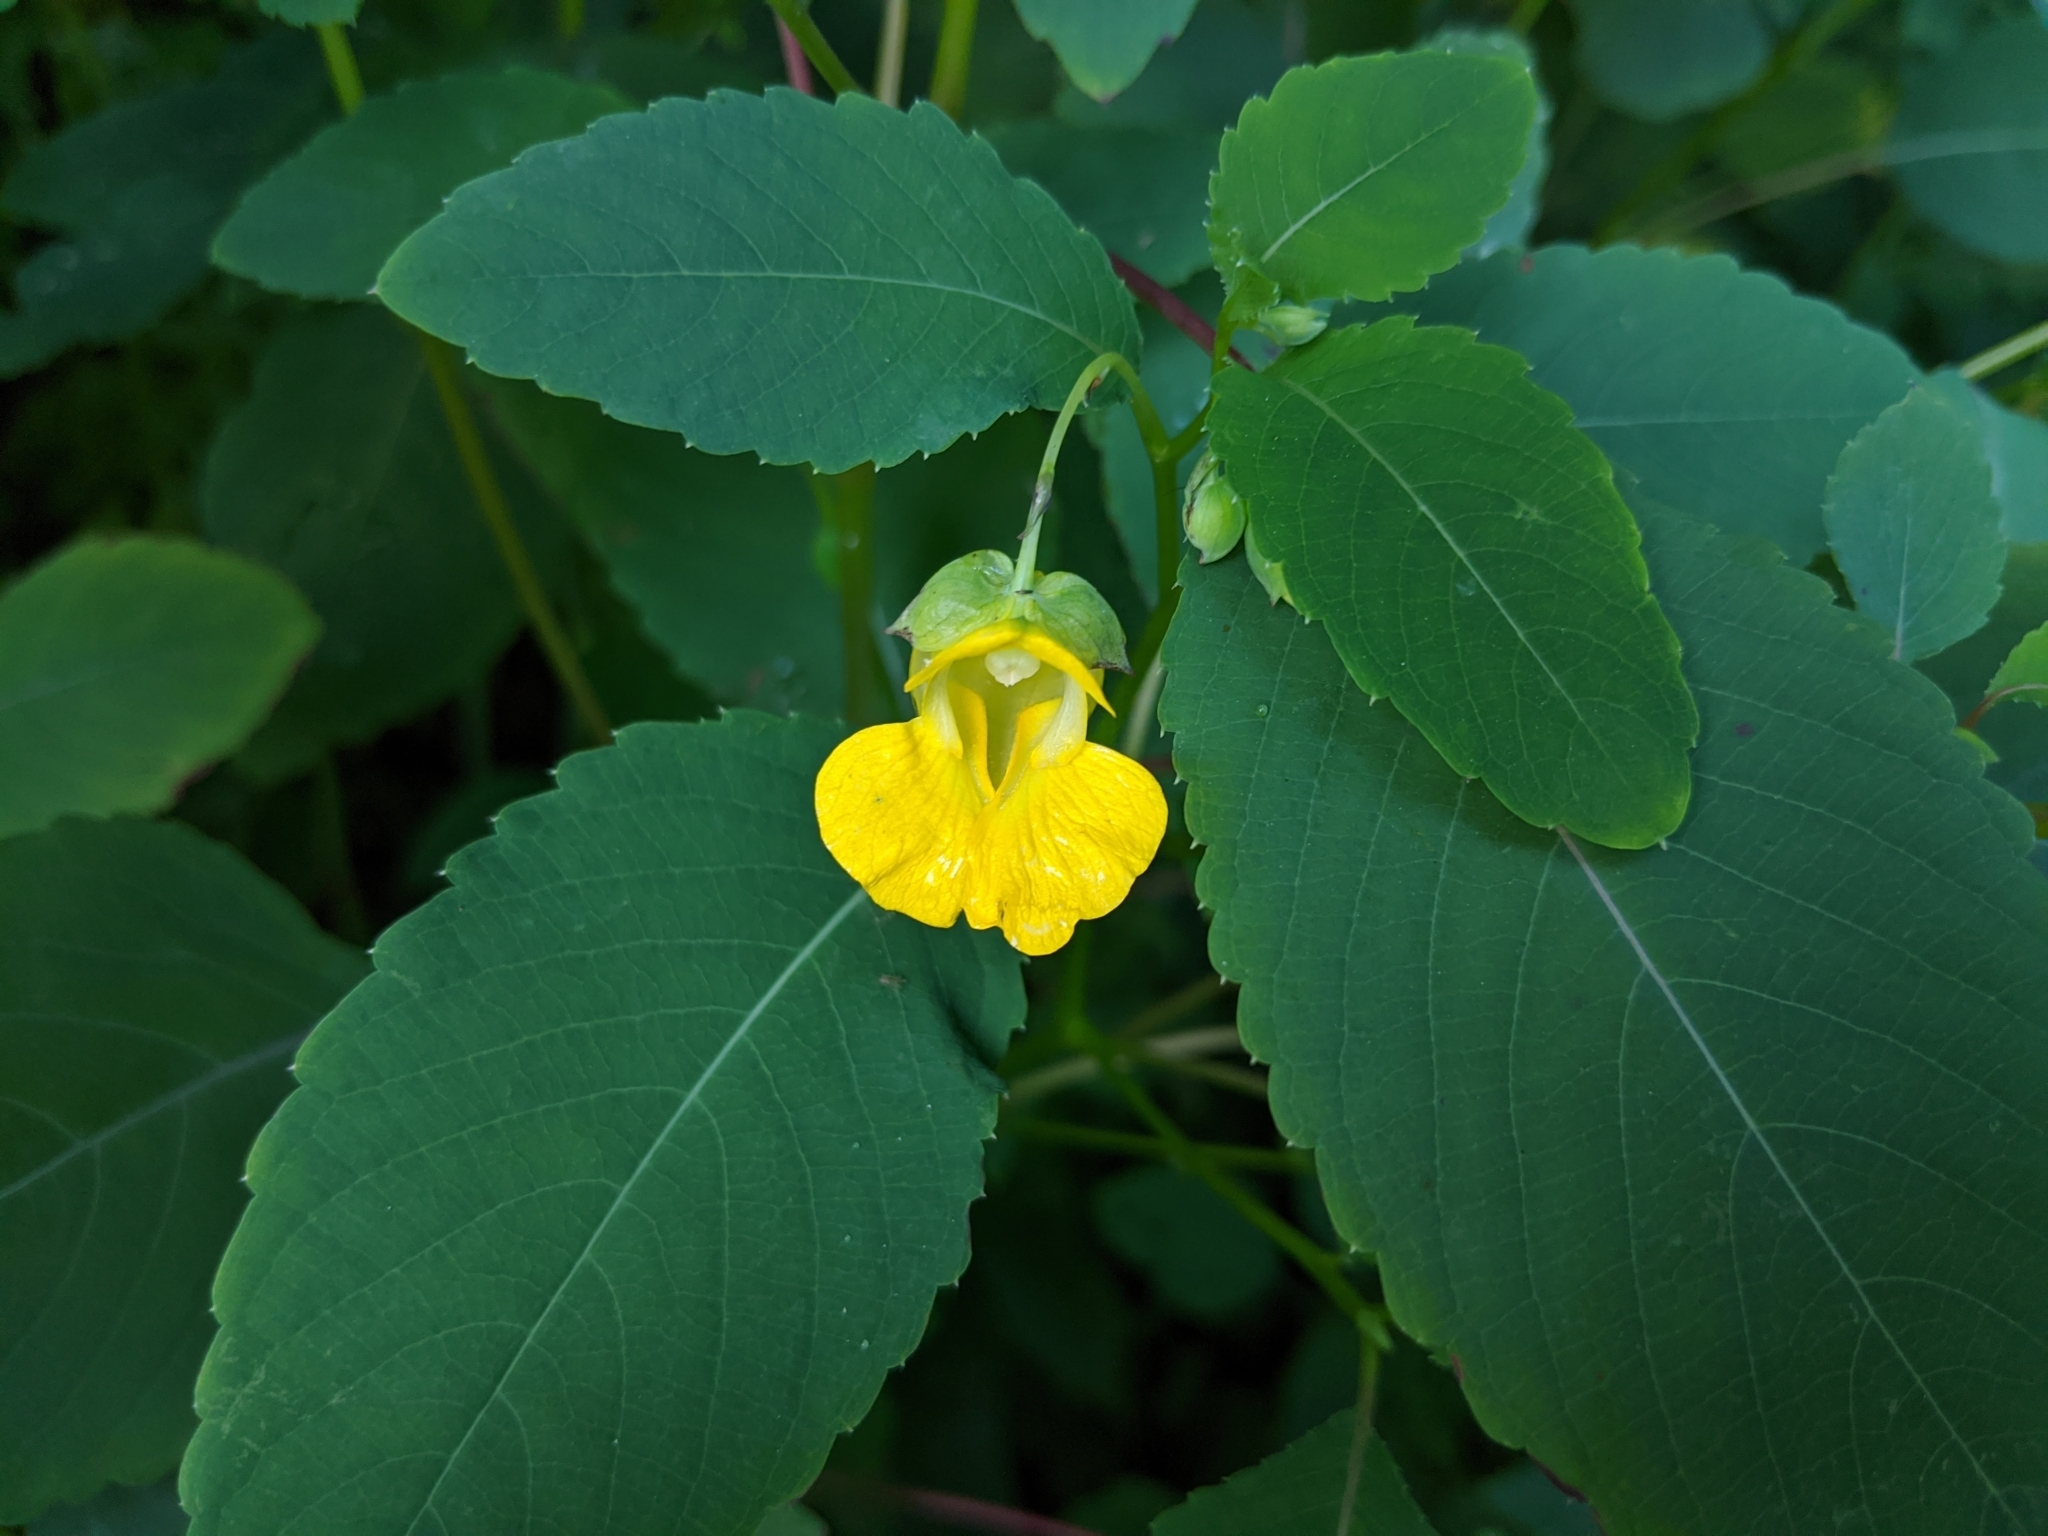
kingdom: Plantae
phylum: Tracheophyta
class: Magnoliopsida
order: Ericales
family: Balsaminaceae
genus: Impatiens
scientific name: Impatiens pallida
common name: Pale snapweed
